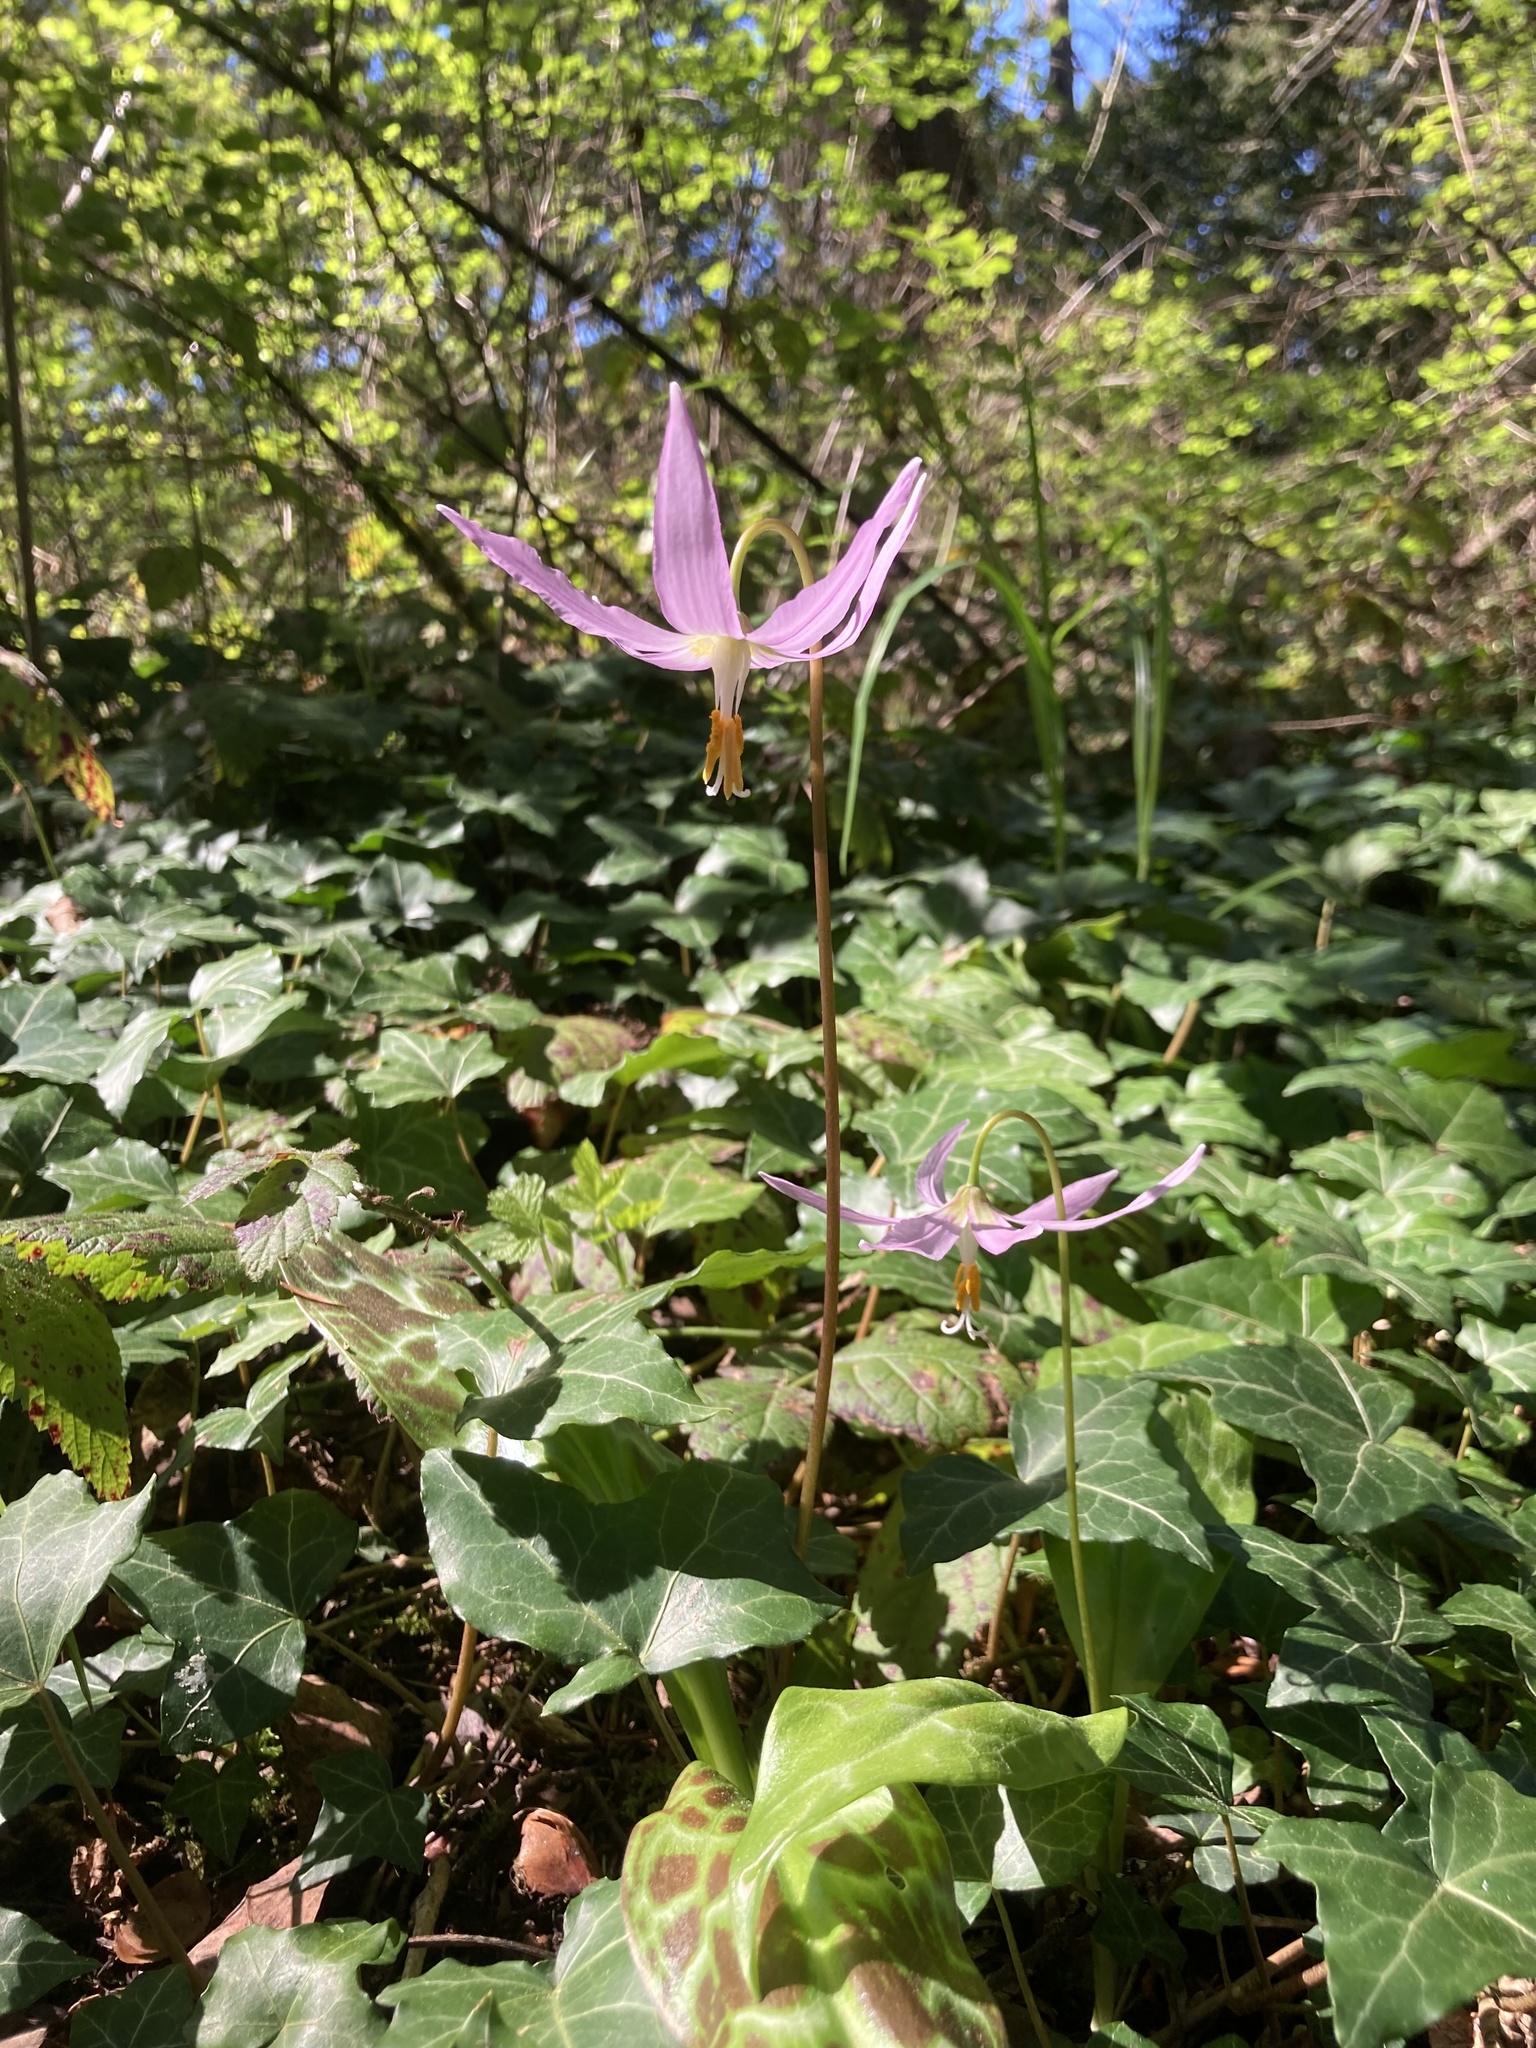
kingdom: Plantae
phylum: Tracheophyta
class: Liliopsida
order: Liliales
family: Liliaceae
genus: Erythronium
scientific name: Erythronium revolutum
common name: Pink fawn-lily
